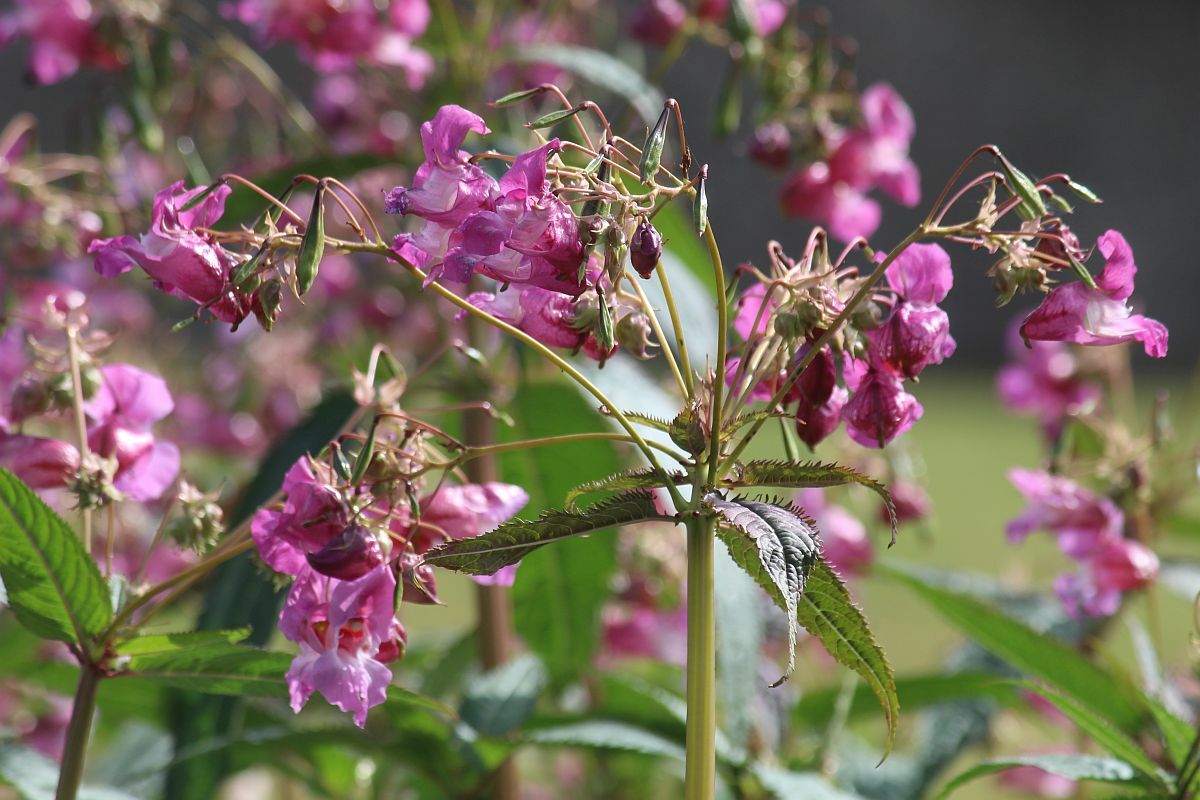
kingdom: Plantae
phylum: Tracheophyta
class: Magnoliopsida
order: Ericales
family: Balsaminaceae
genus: Impatiens
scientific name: Impatiens glandulifera
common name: Himalayan balsam
